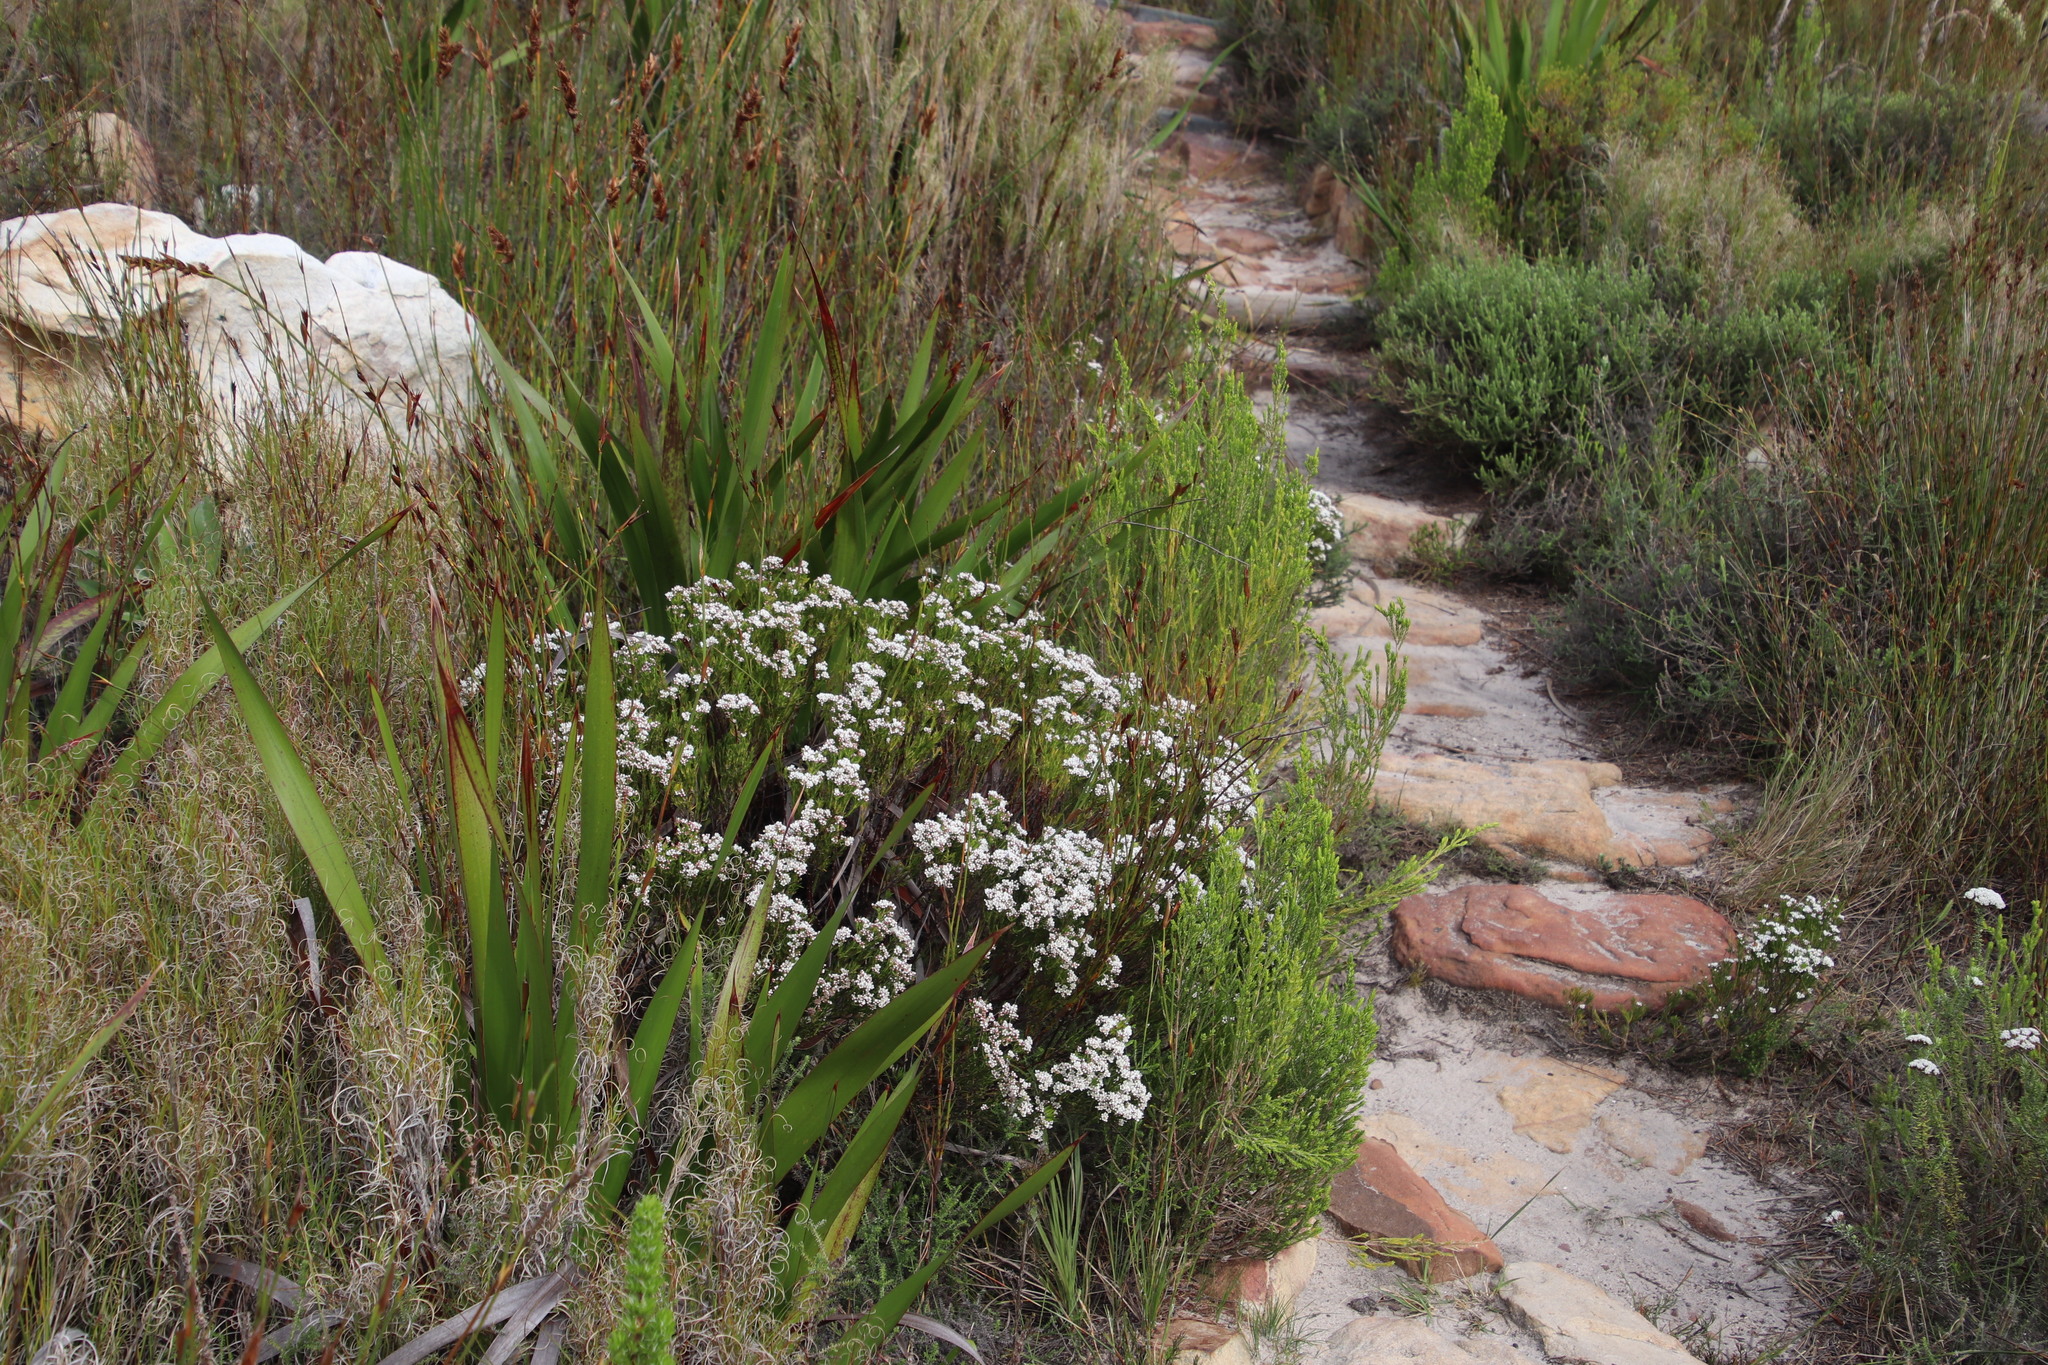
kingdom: Plantae
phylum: Tracheophyta
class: Magnoliopsida
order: Sapindales
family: Rutaceae
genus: Diosma
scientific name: Diosma hirsuta
